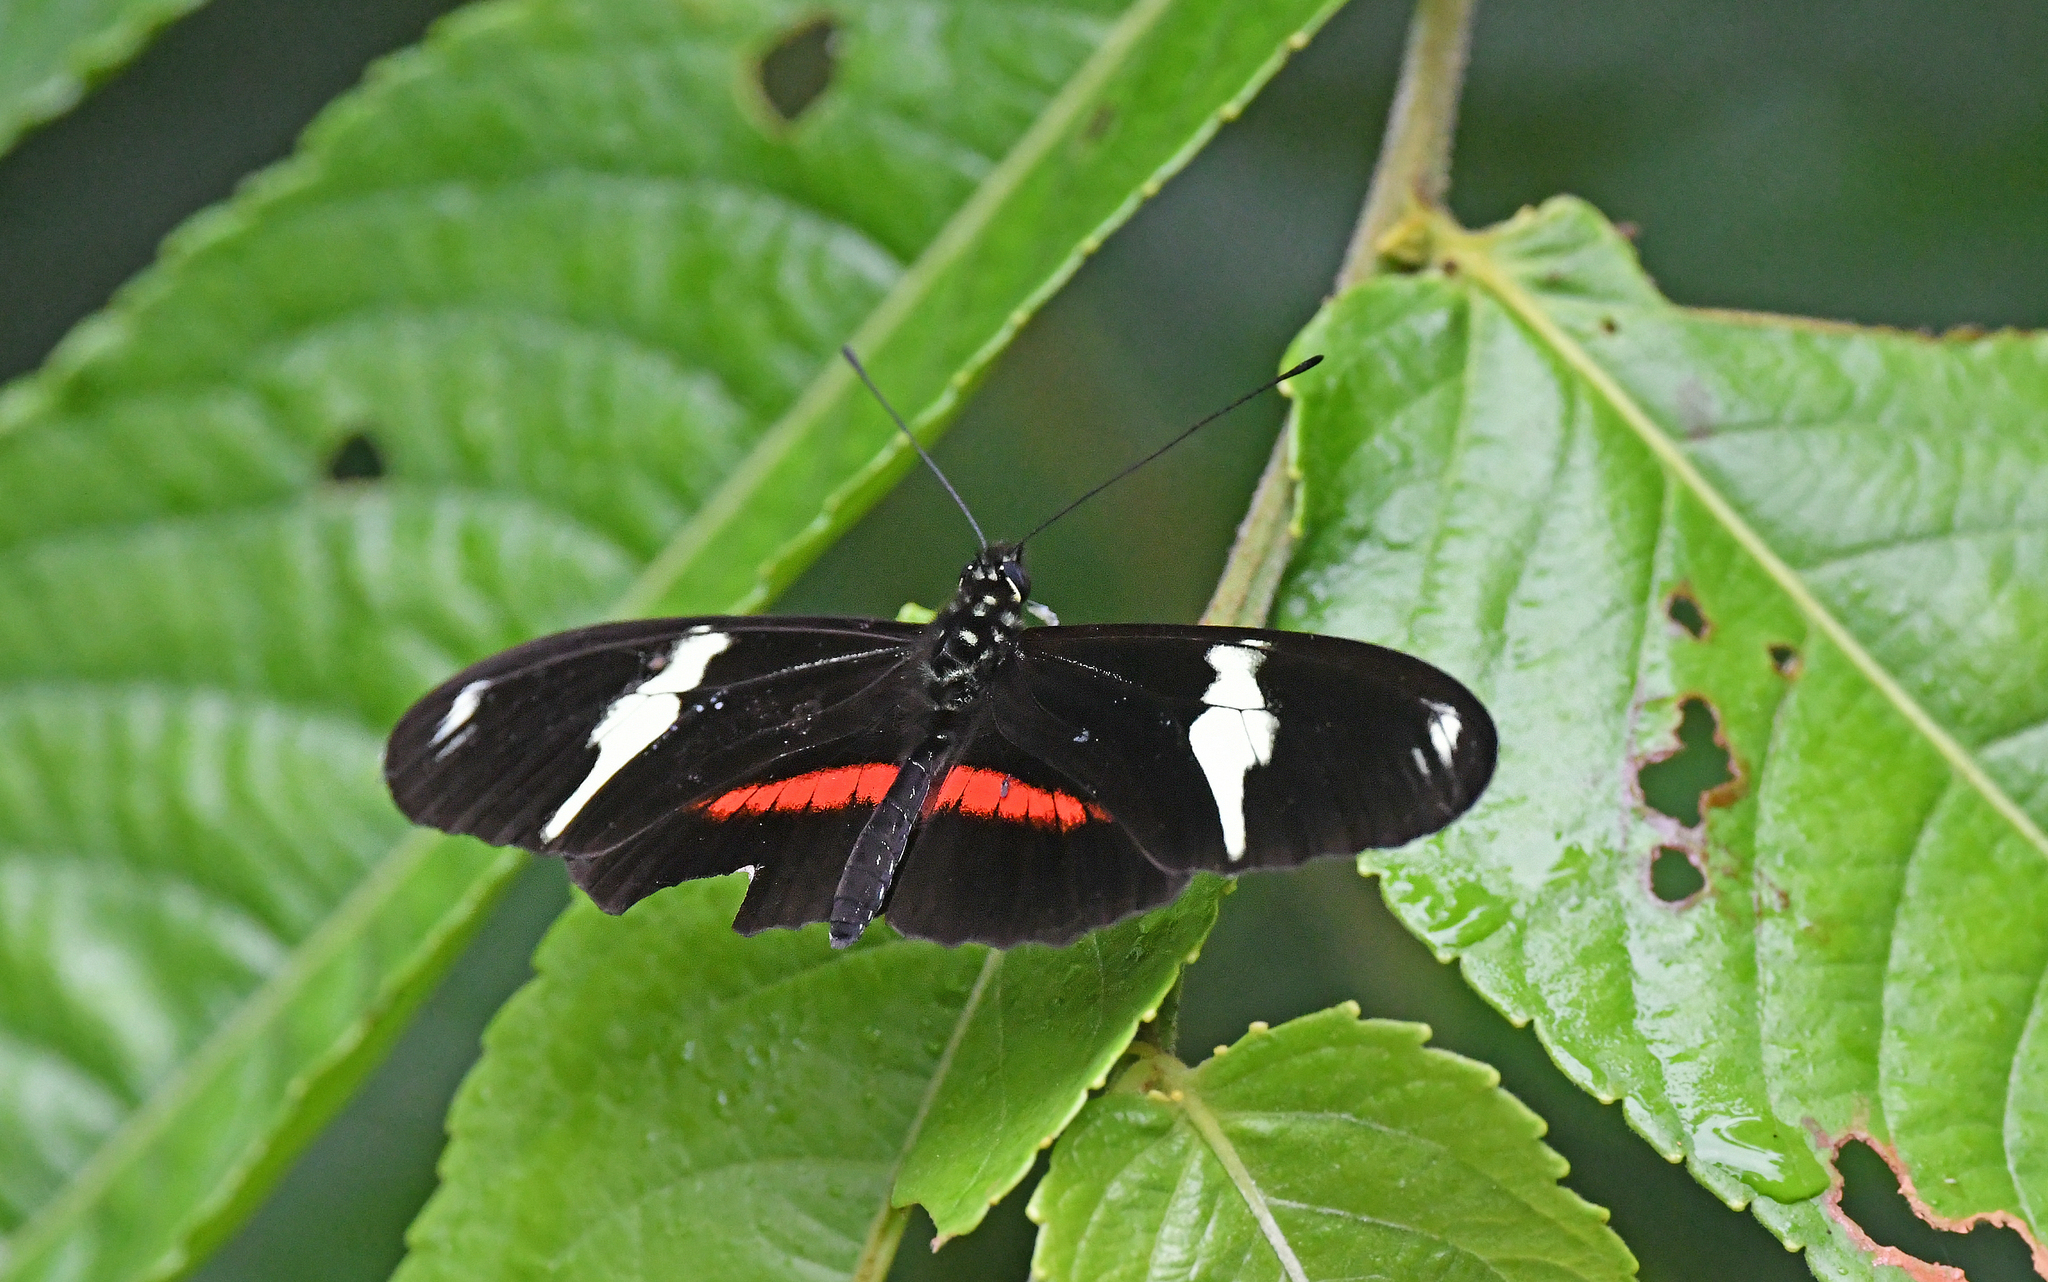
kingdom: Animalia
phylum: Arthropoda
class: Insecta
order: Lepidoptera
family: Nymphalidae
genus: Heliconius
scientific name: Heliconius clysonymus
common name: Clysonymus longwing
